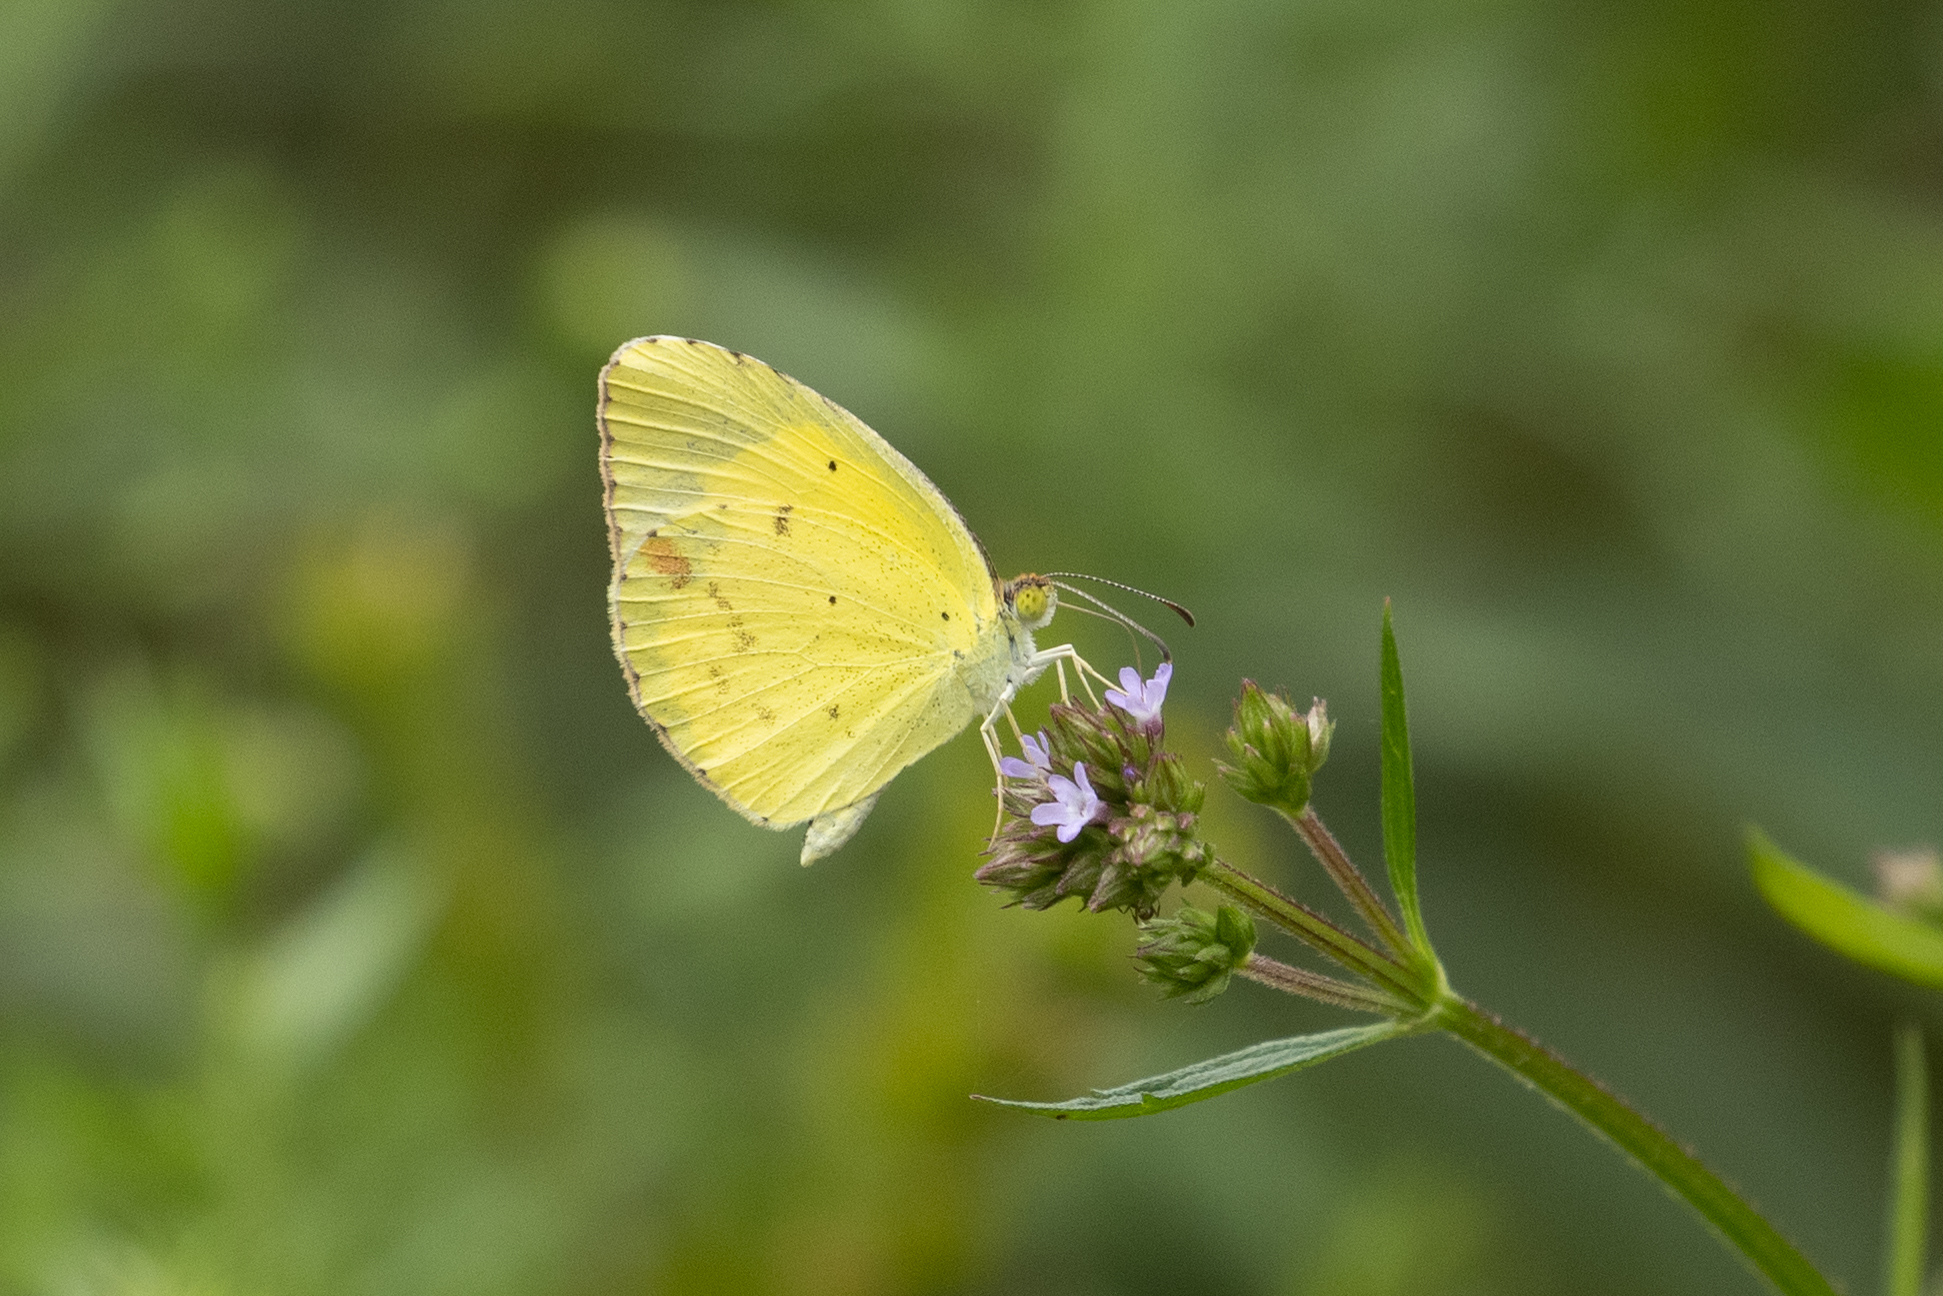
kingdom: Animalia
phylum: Arthropoda
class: Insecta
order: Lepidoptera
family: Pieridae
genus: Pyrisitia
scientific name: Pyrisitia lisa
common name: Little yellow
